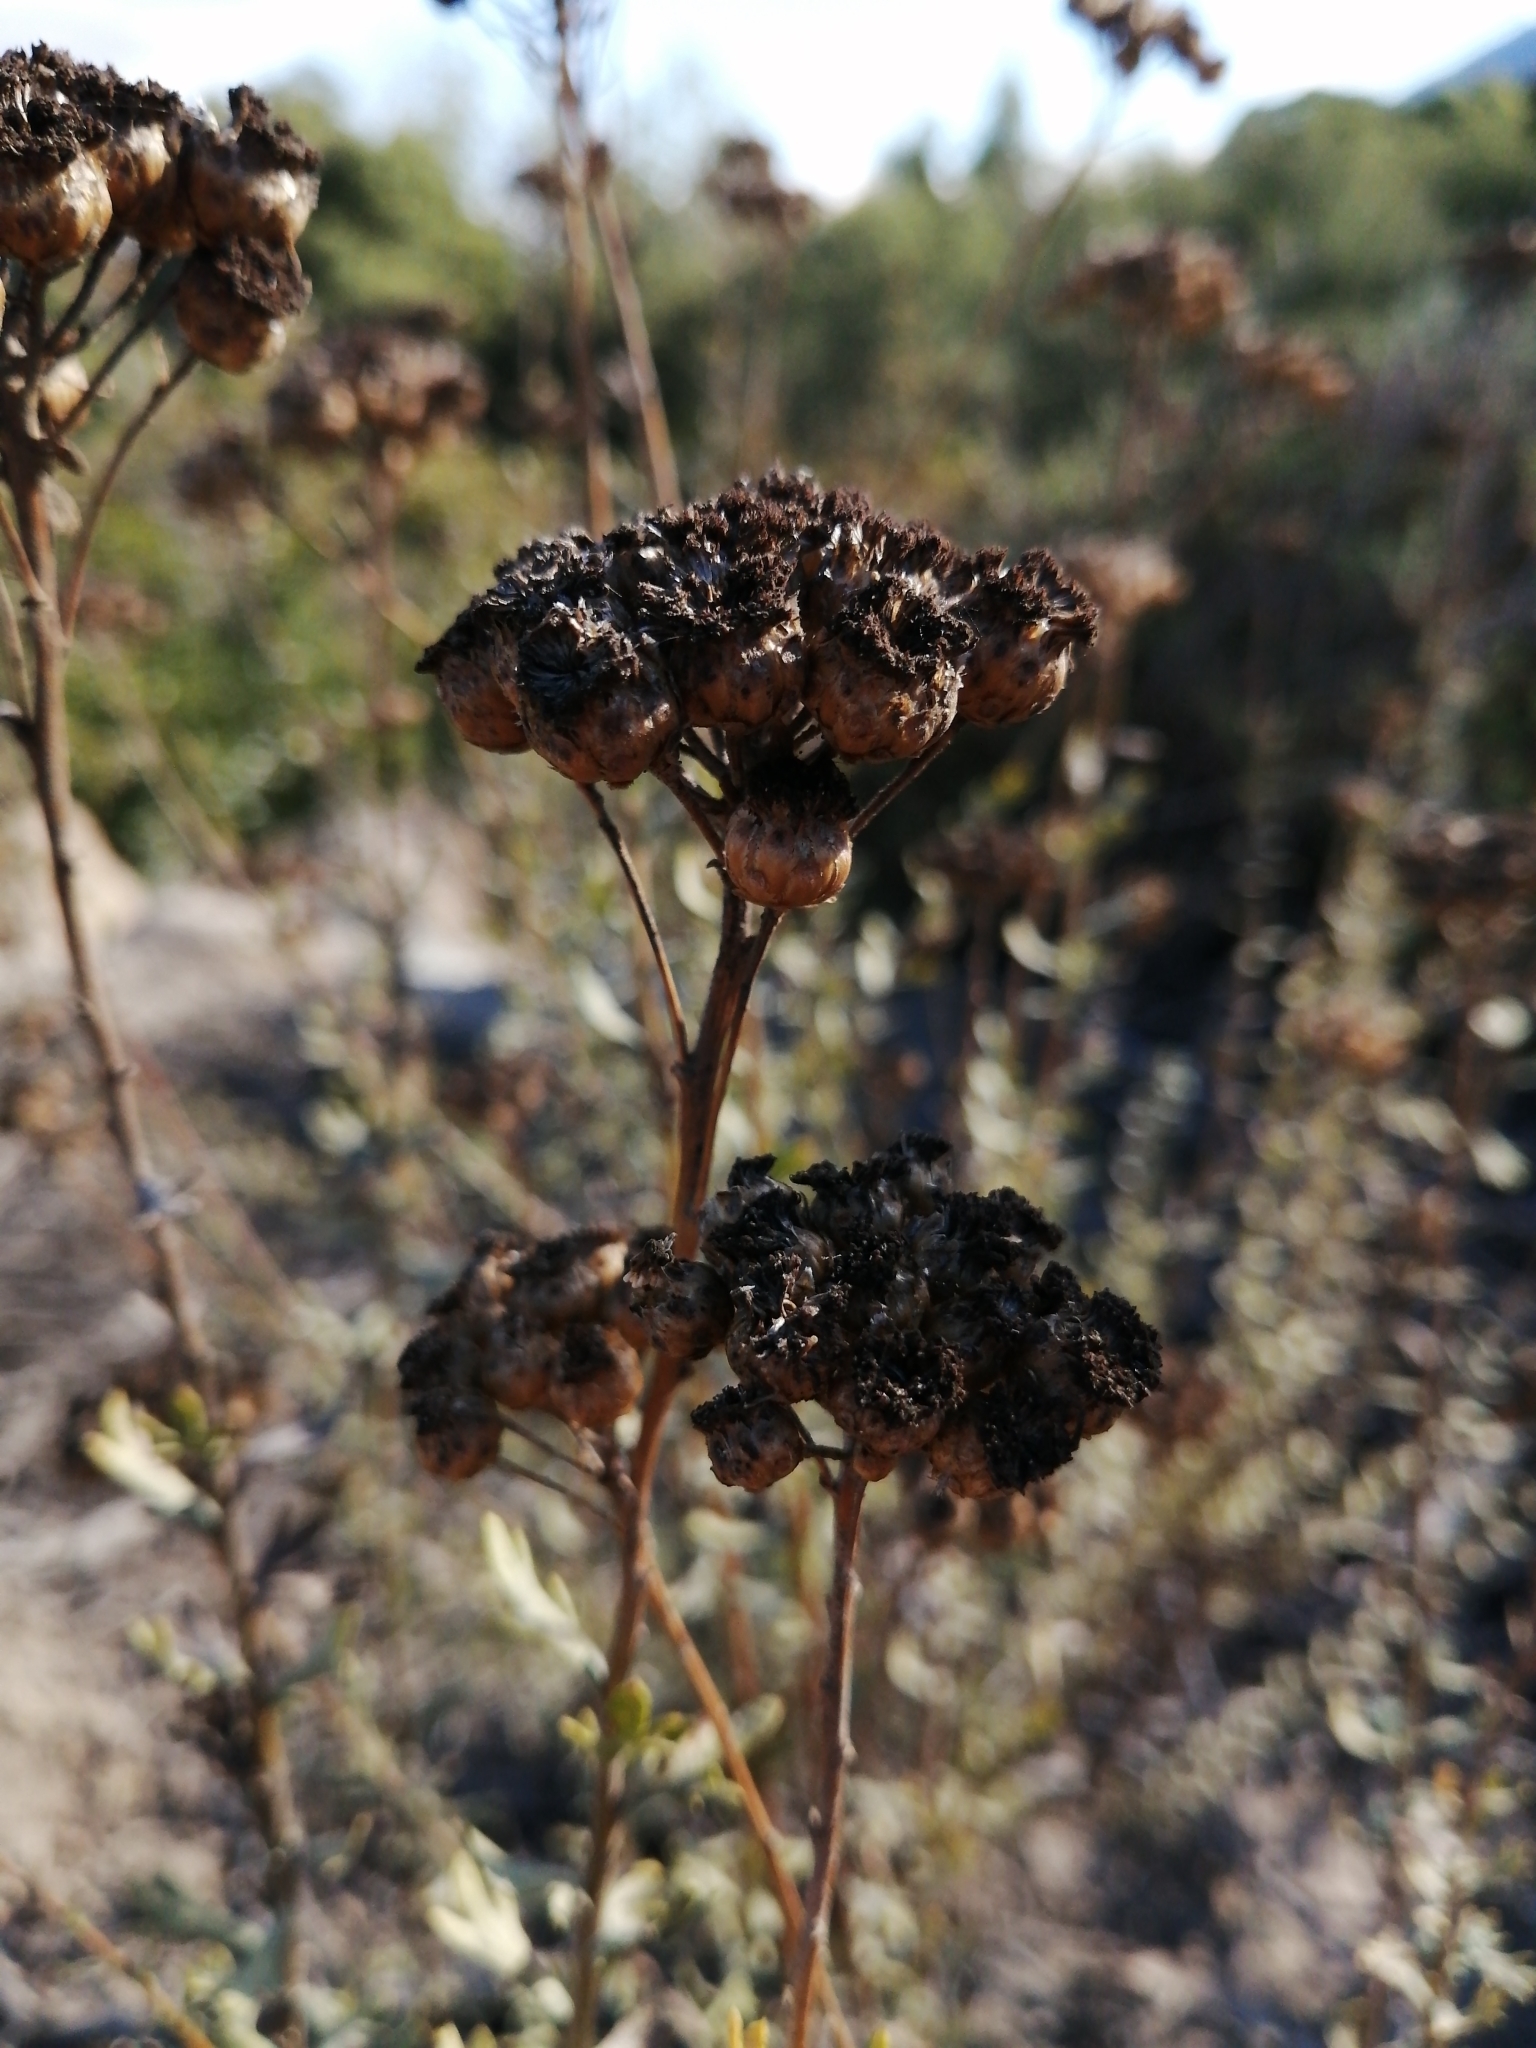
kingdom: Plantae
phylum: Tracheophyta
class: Magnoliopsida
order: Asterales
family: Asteraceae
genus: Athanasia
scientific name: Athanasia trifurcata
